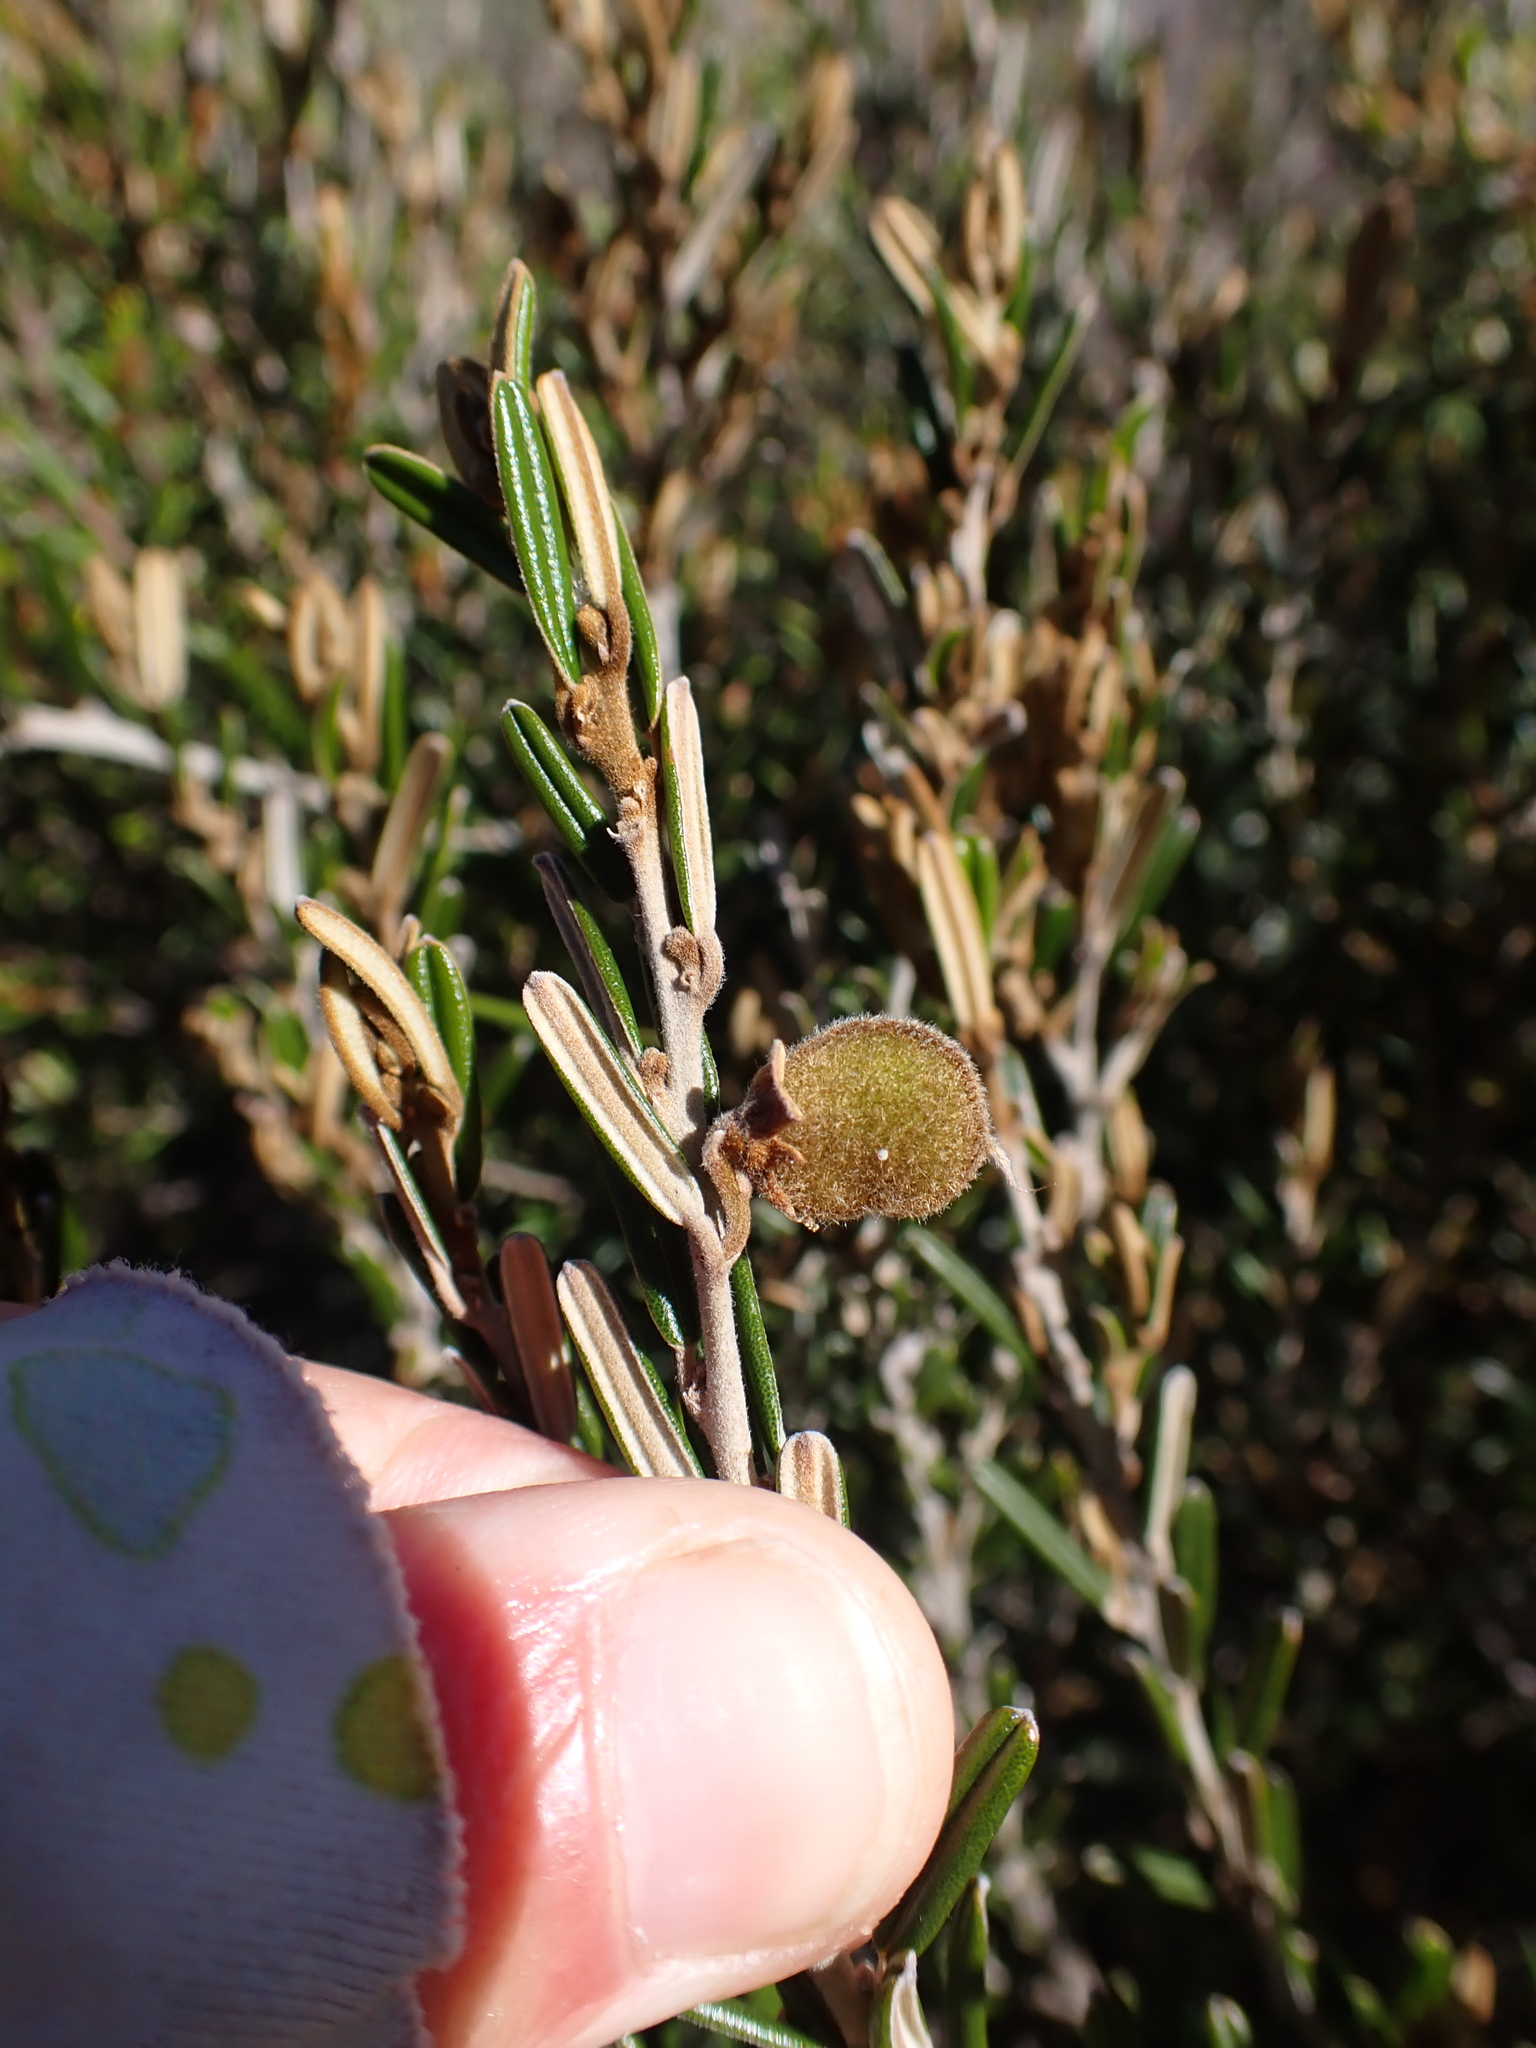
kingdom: Plantae
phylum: Tracheophyta
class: Magnoliopsida
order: Fabales
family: Fabaceae
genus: Hovea
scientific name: Hovea montana
